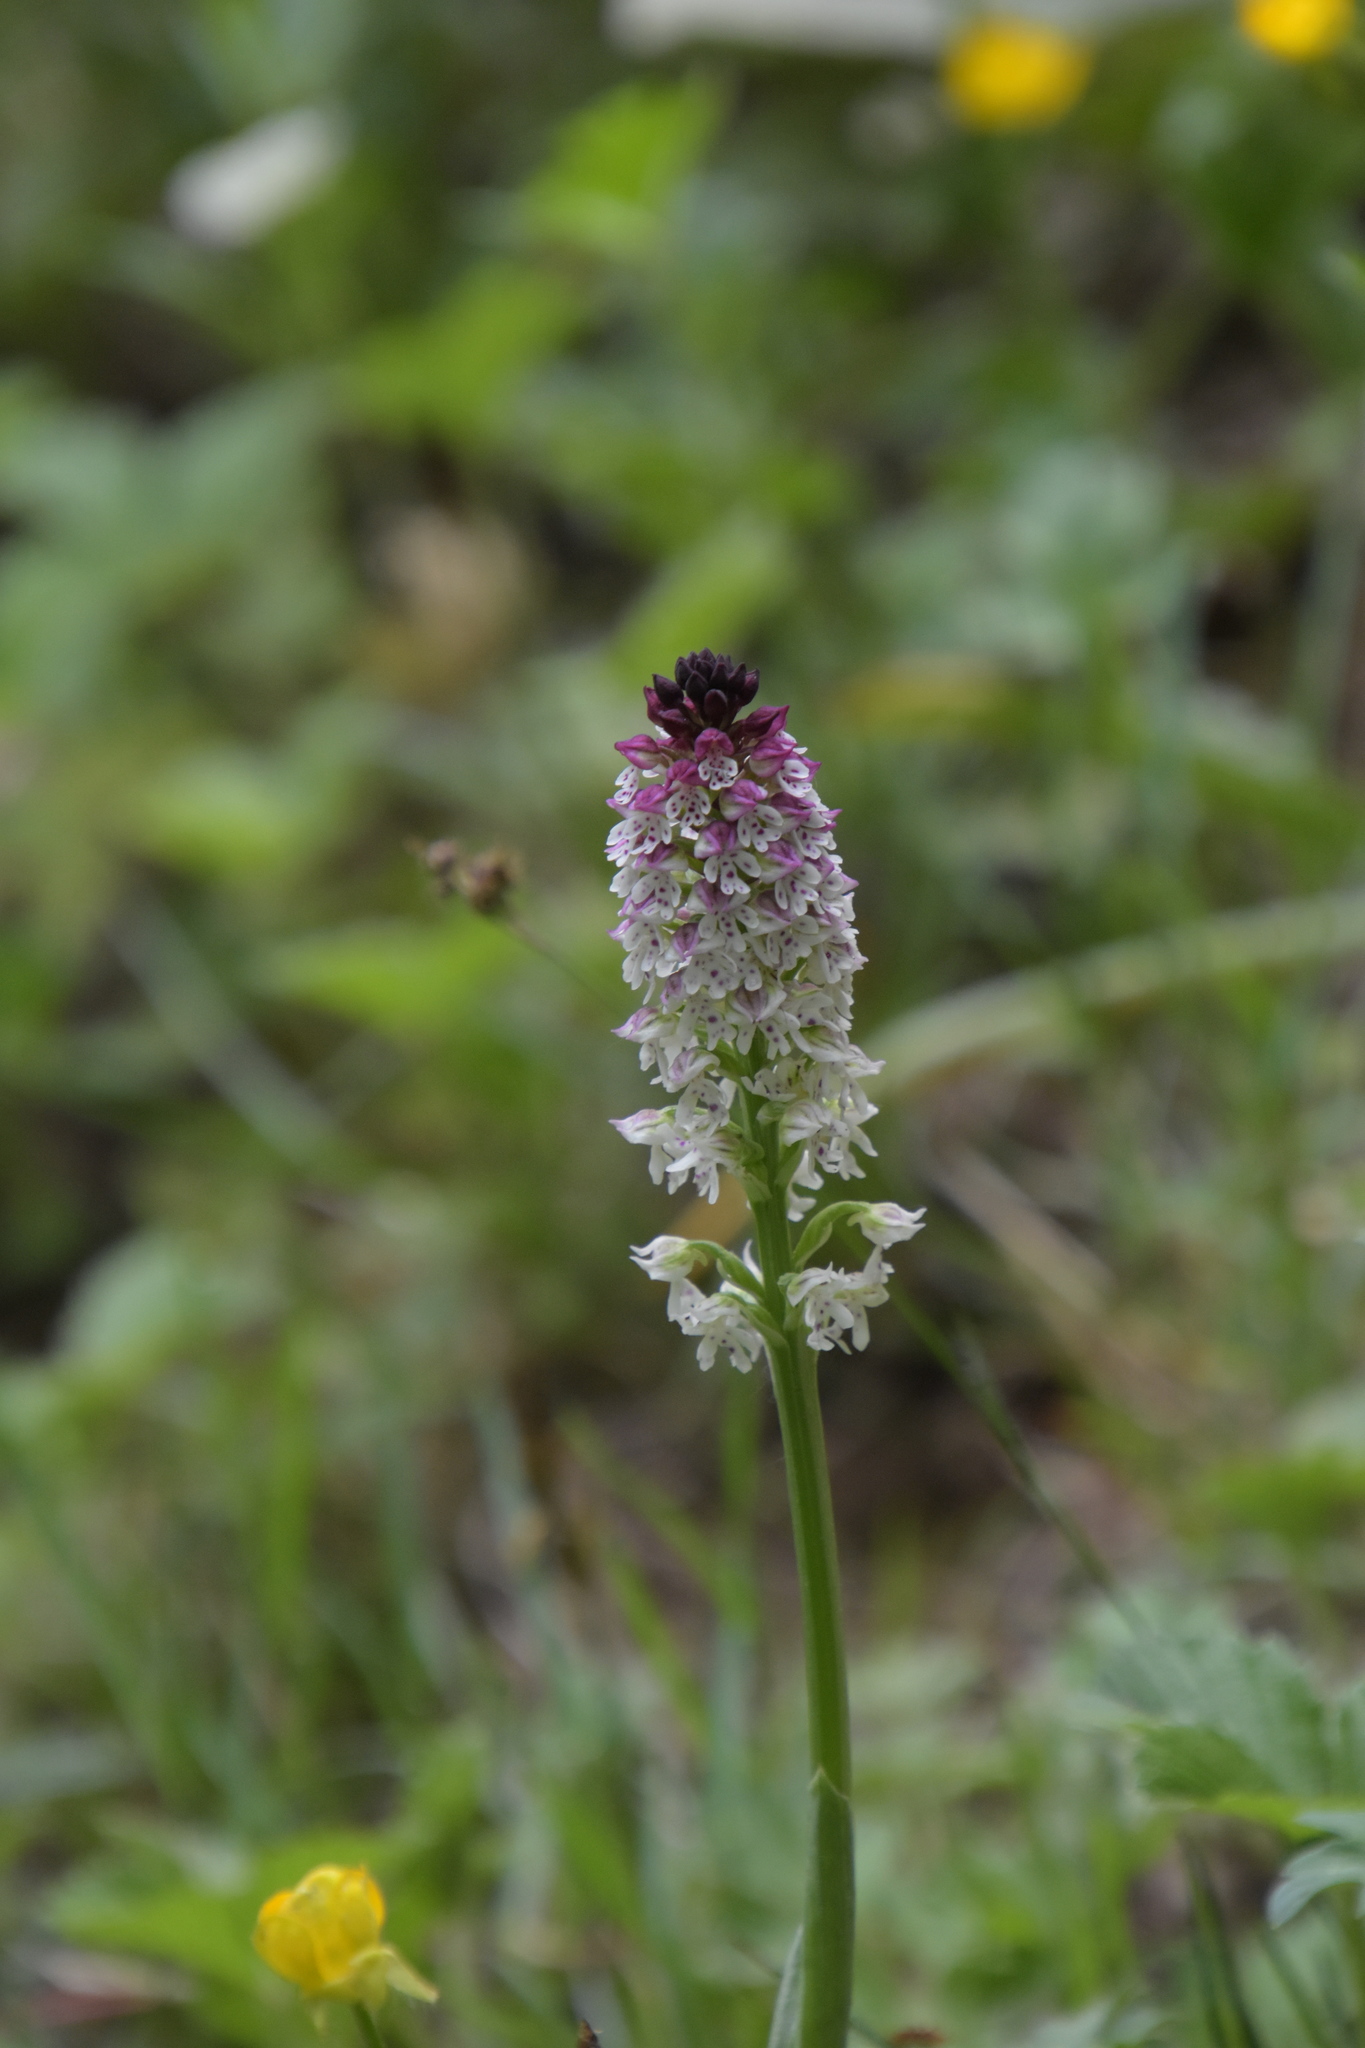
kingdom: Plantae
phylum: Tracheophyta
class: Liliopsida
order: Asparagales
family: Orchidaceae
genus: Neotinea
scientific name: Neotinea ustulata
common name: Burnt orchid
